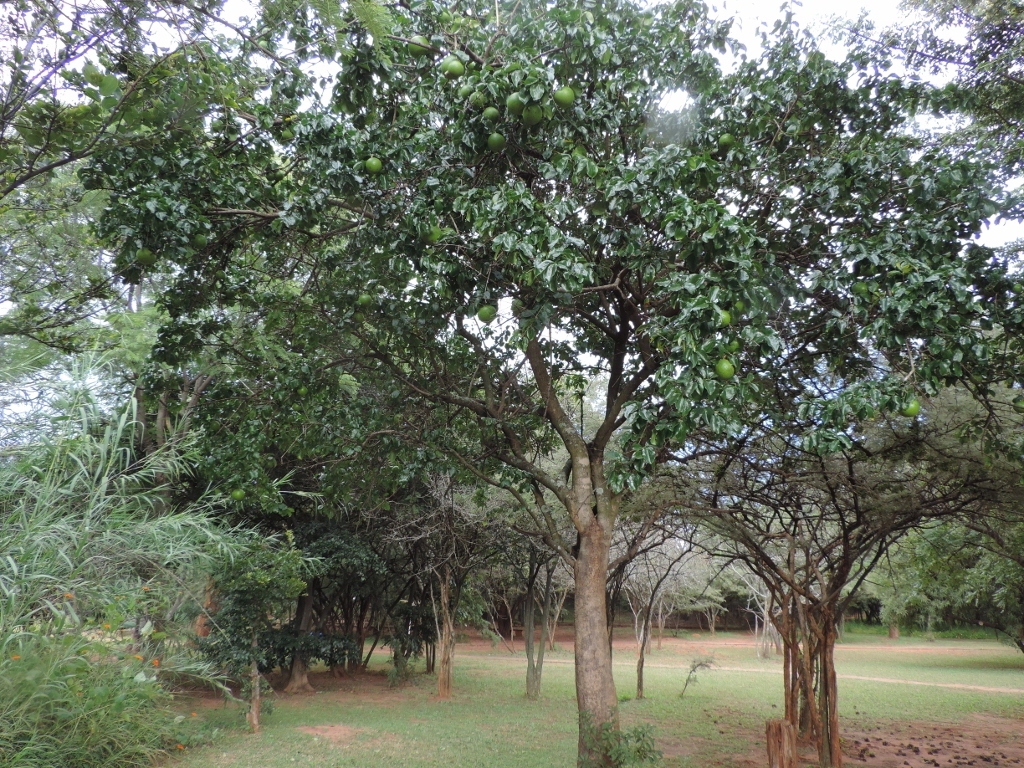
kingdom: Plantae
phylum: Tracheophyta
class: Magnoliopsida
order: Gentianales
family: Loganiaceae
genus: Strychnos
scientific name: Strychnos spinosa
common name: Natal orange
